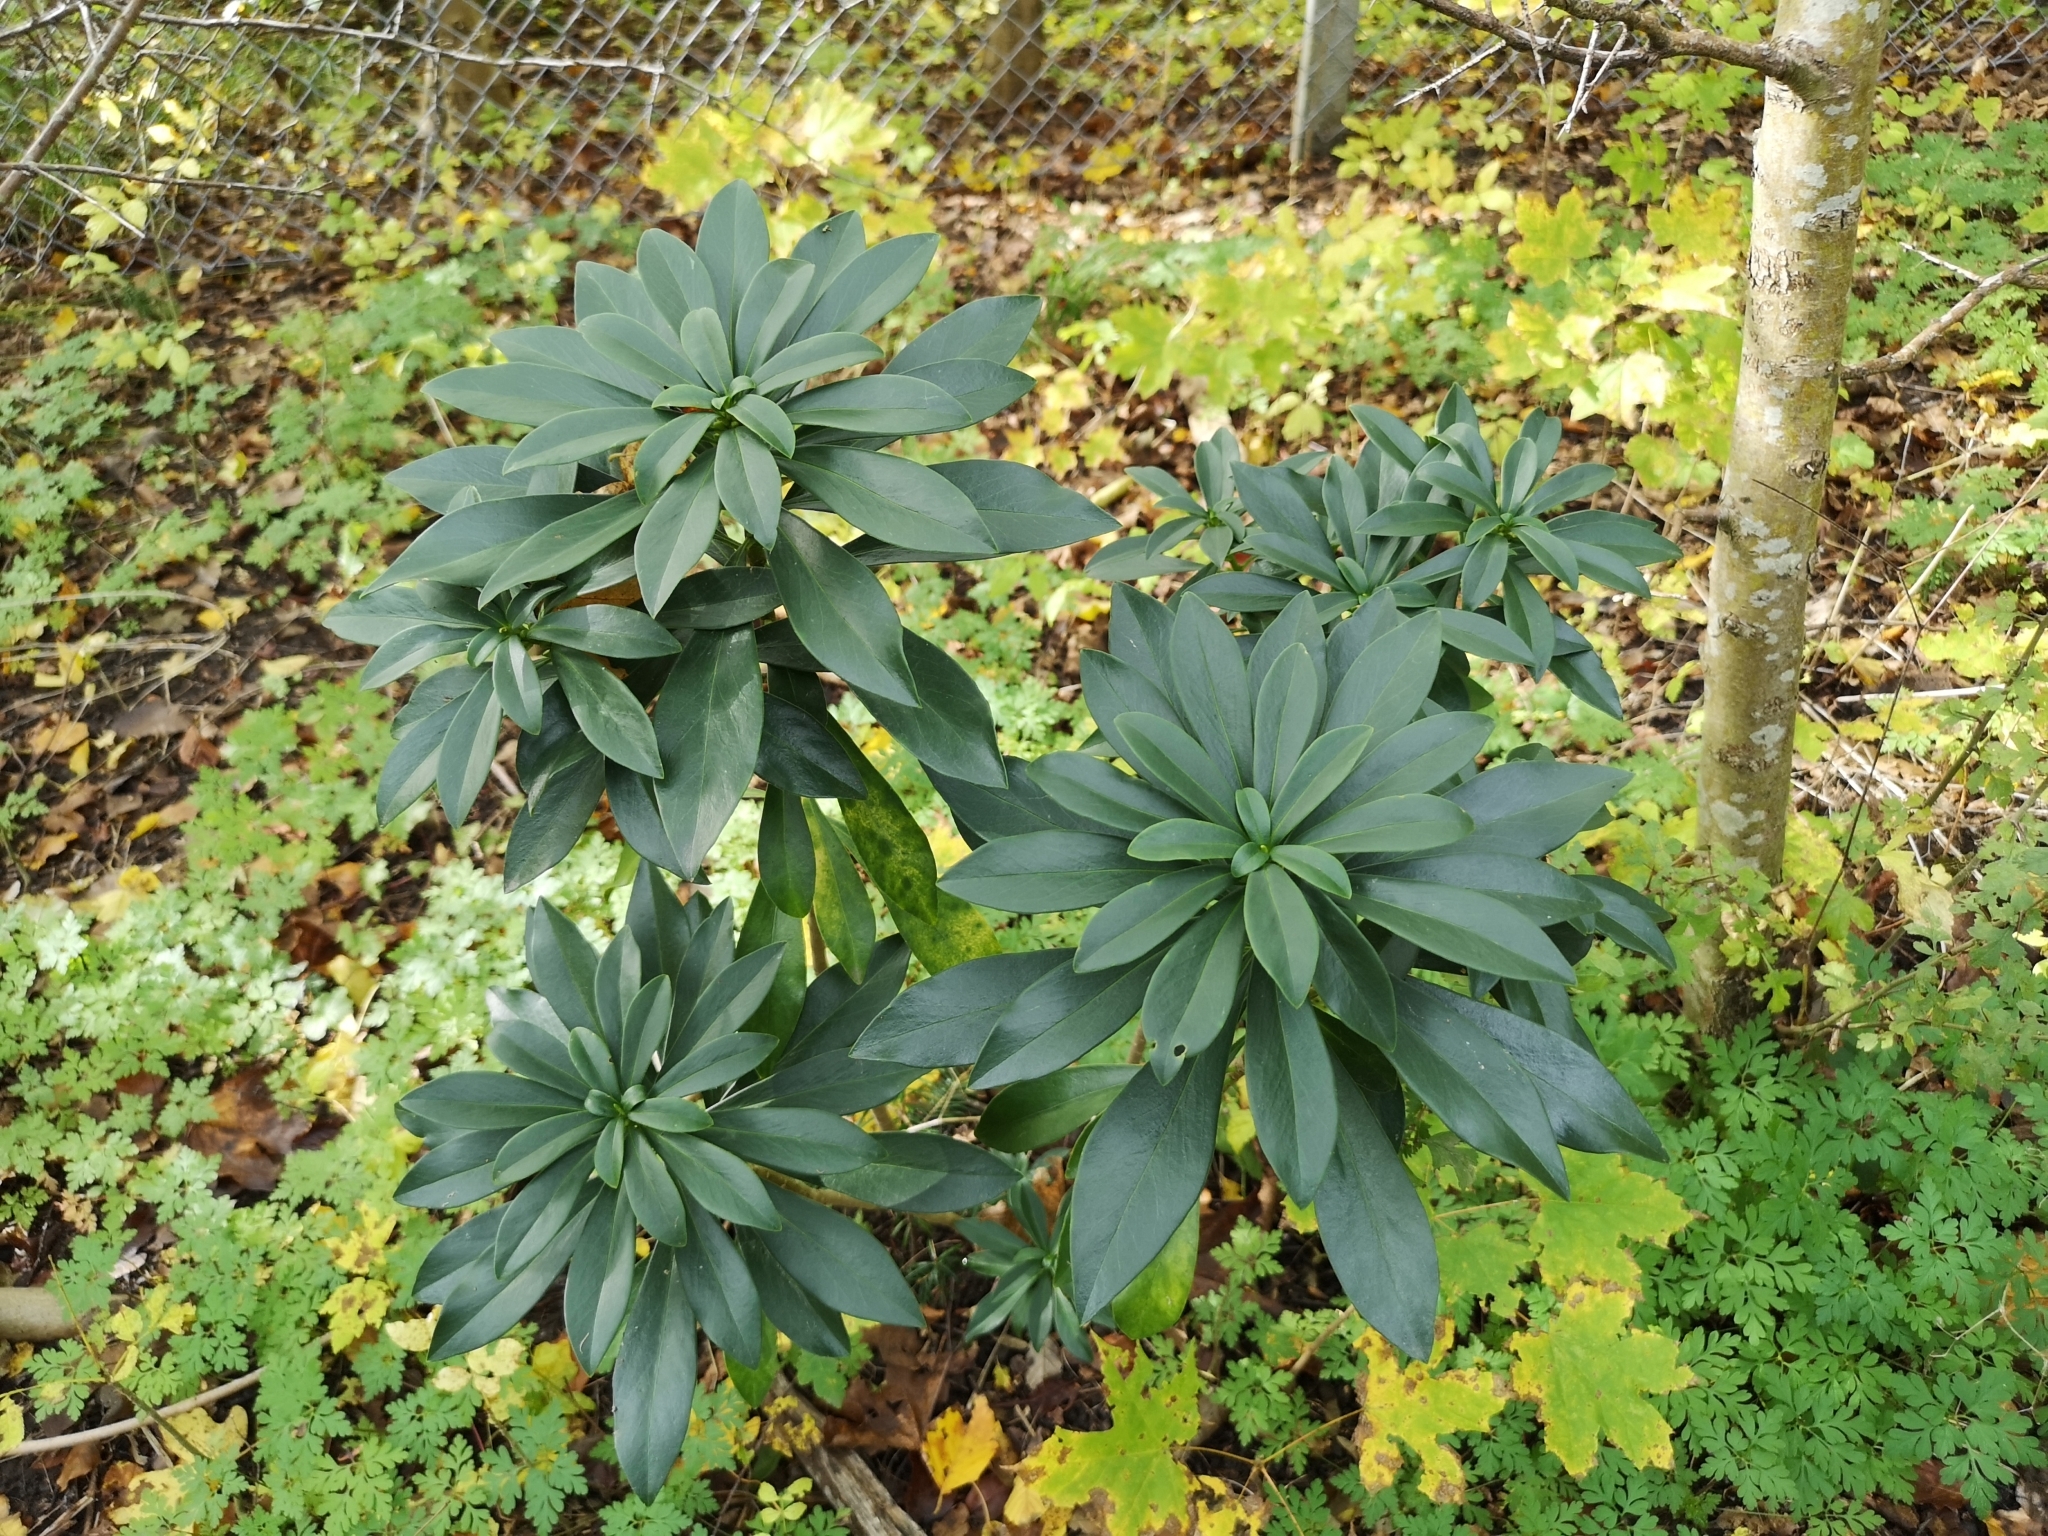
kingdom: Plantae
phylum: Tracheophyta
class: Magnoliopsida
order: Malvales
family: Thymelaeaceae
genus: Daphne
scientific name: Daphne laureola
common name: Spurge-laurel
